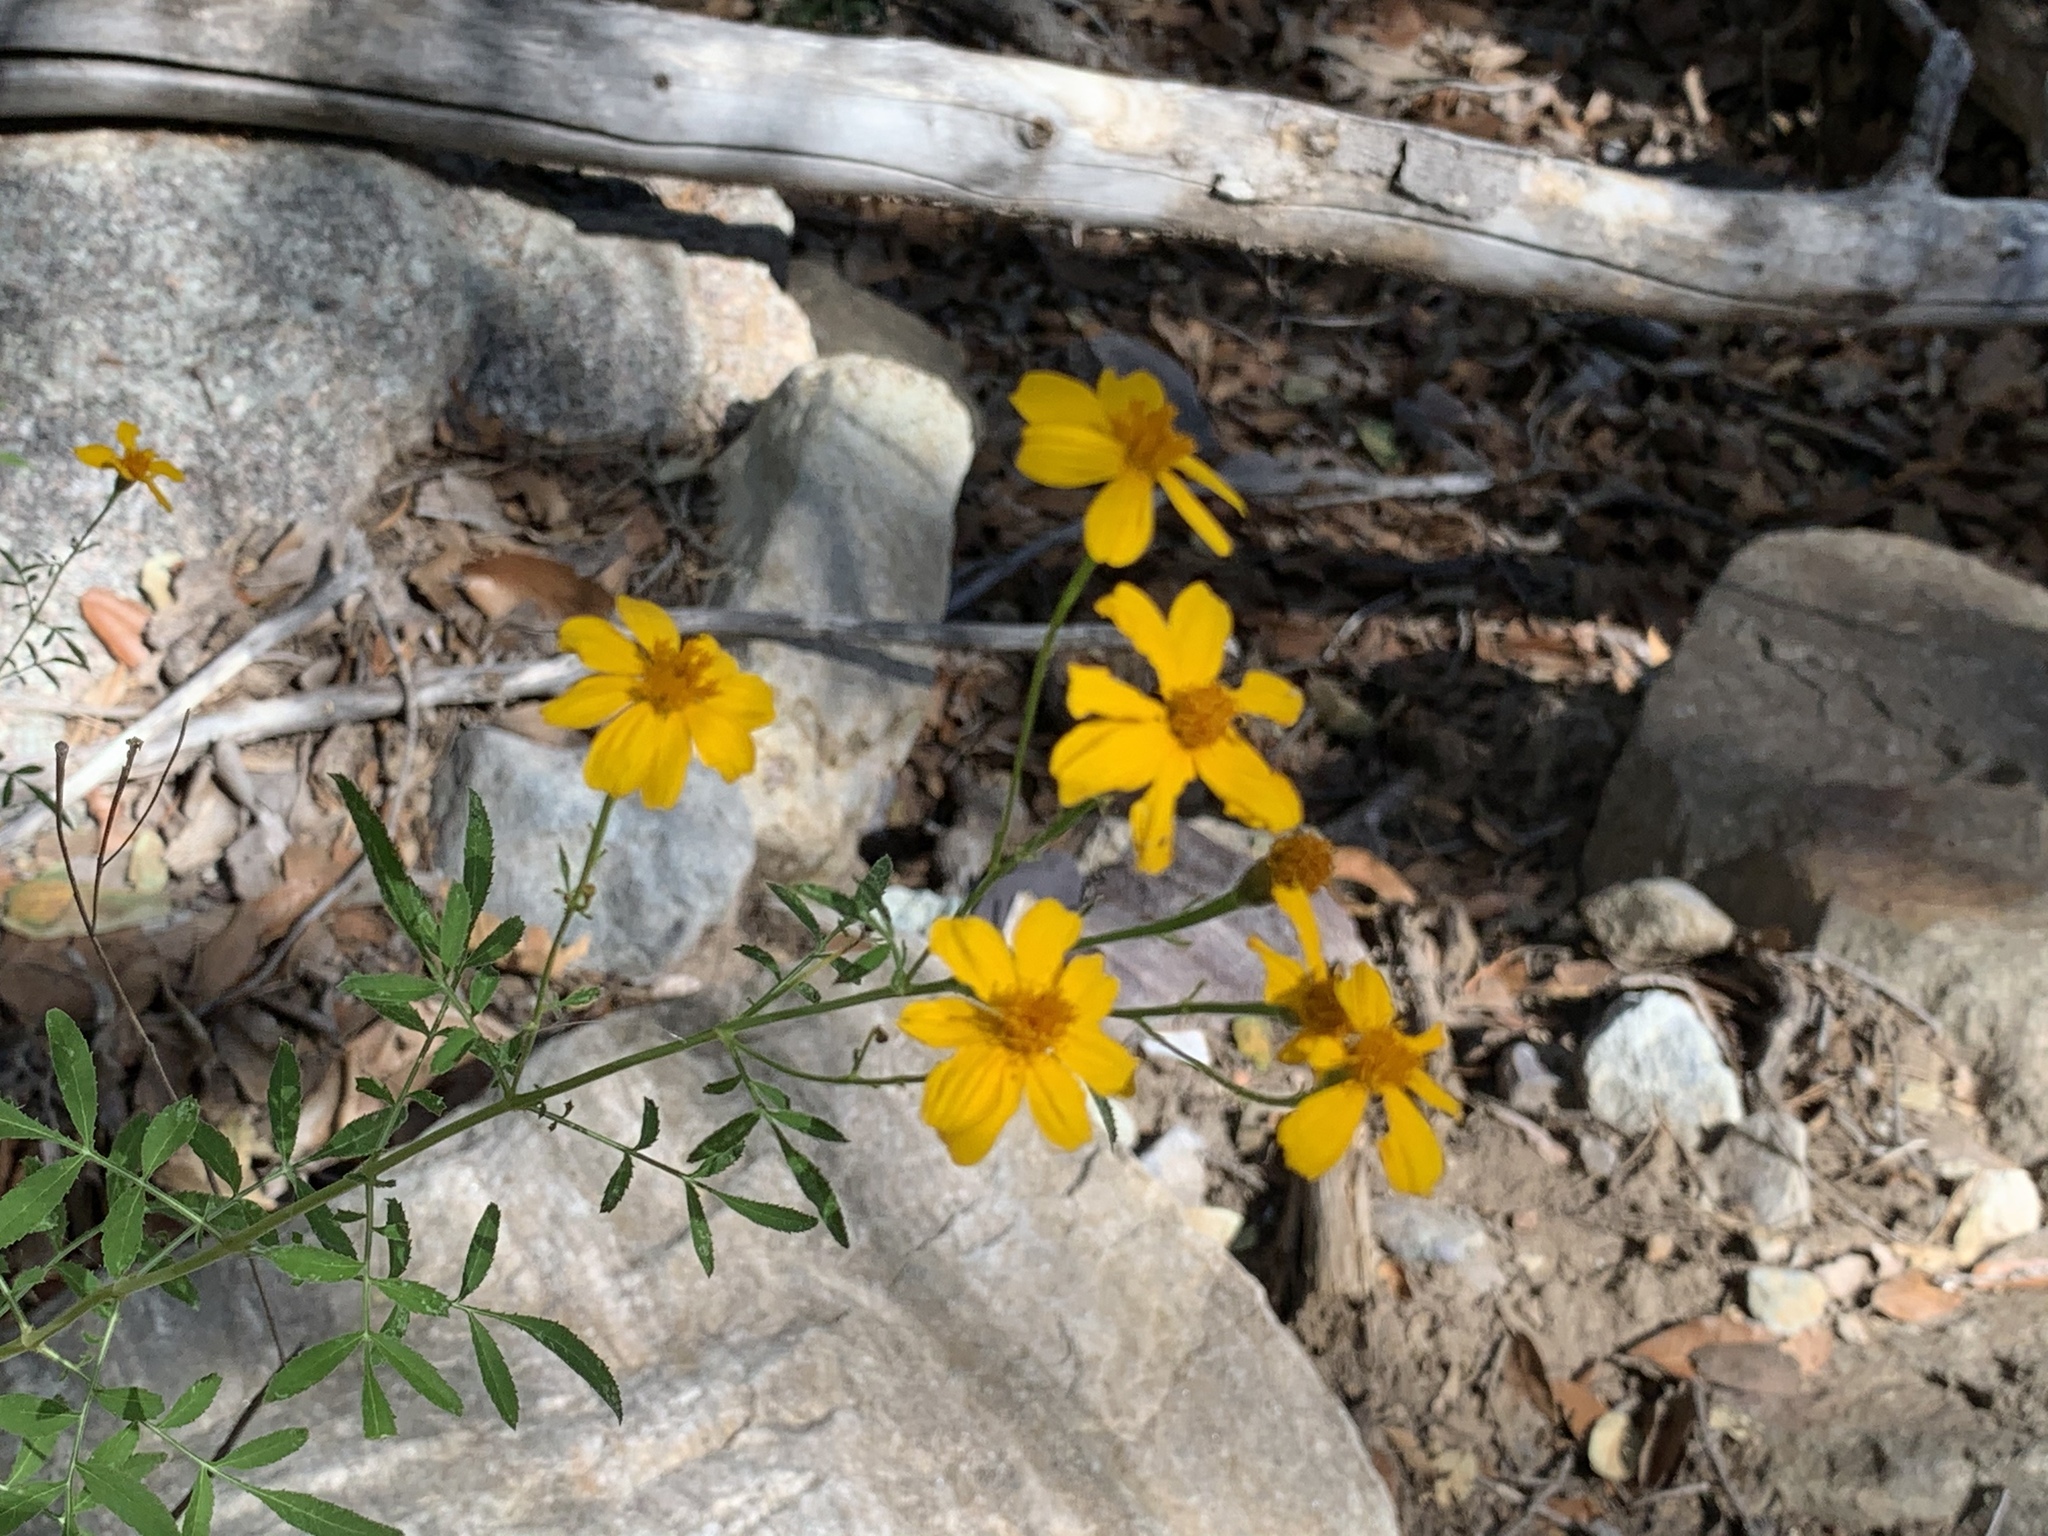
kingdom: Plantae
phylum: Tracheophyta
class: Magnoliopsida
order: Asterales
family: Asteraceae
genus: Tagetes
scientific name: Tagetes lemmonii
